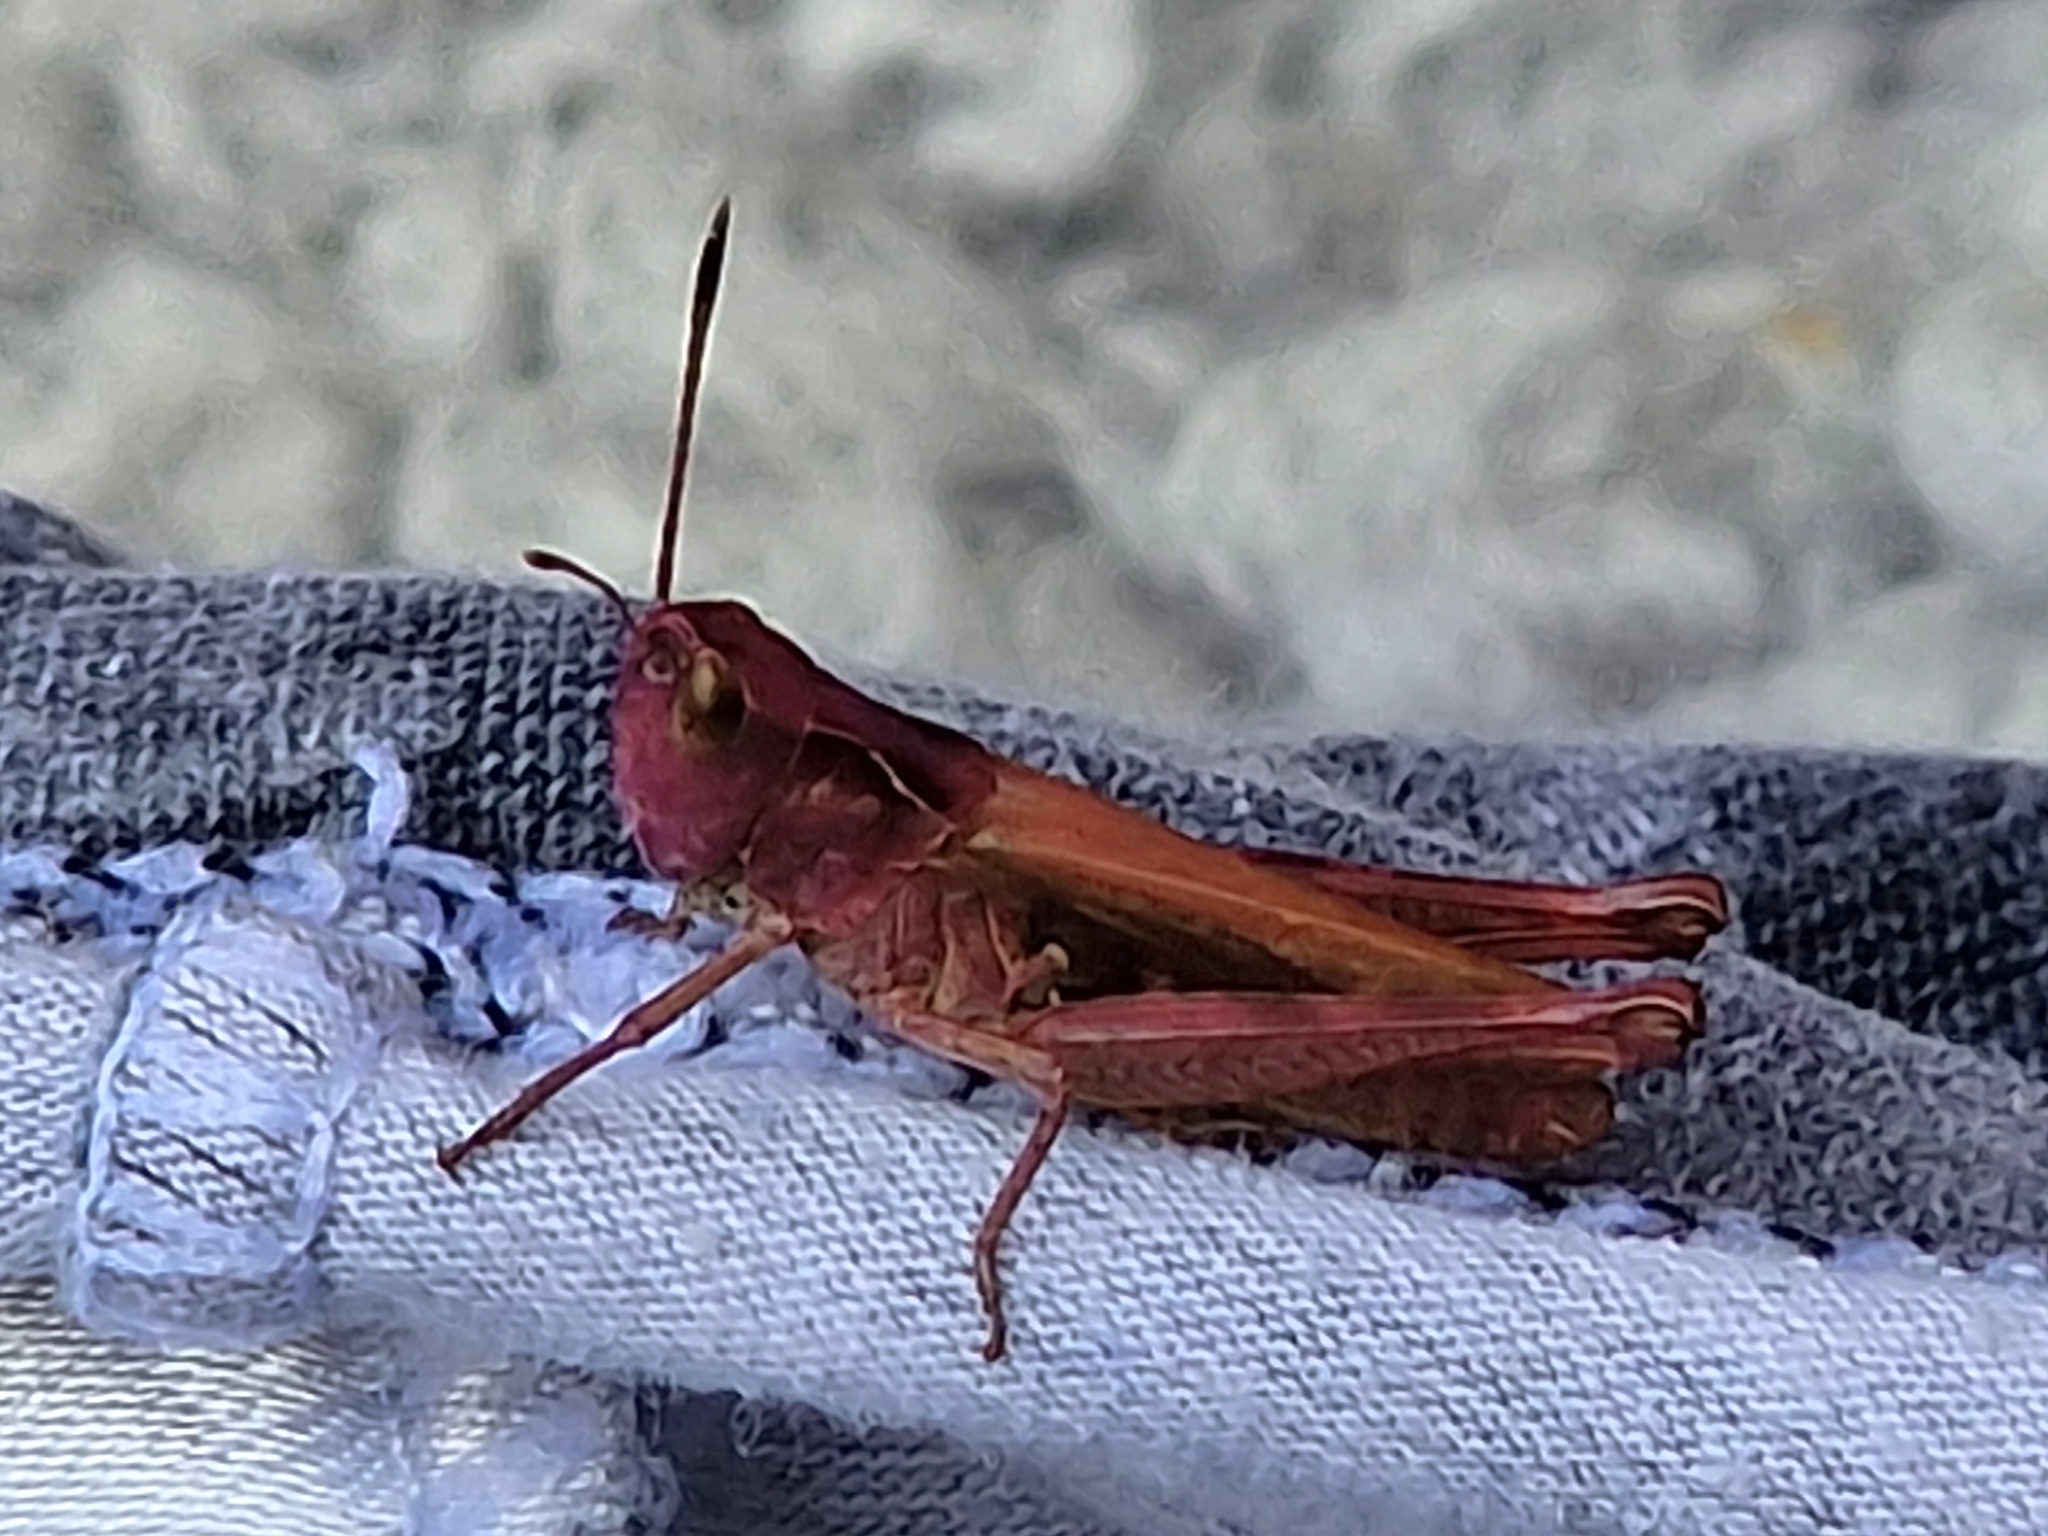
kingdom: Animalia
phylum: Arthropoda
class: Insecta
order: Orthoptera
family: Acrididae
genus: Gomphocerippus
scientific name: Gomphocerippus rufus
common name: Rufous grasshopper
